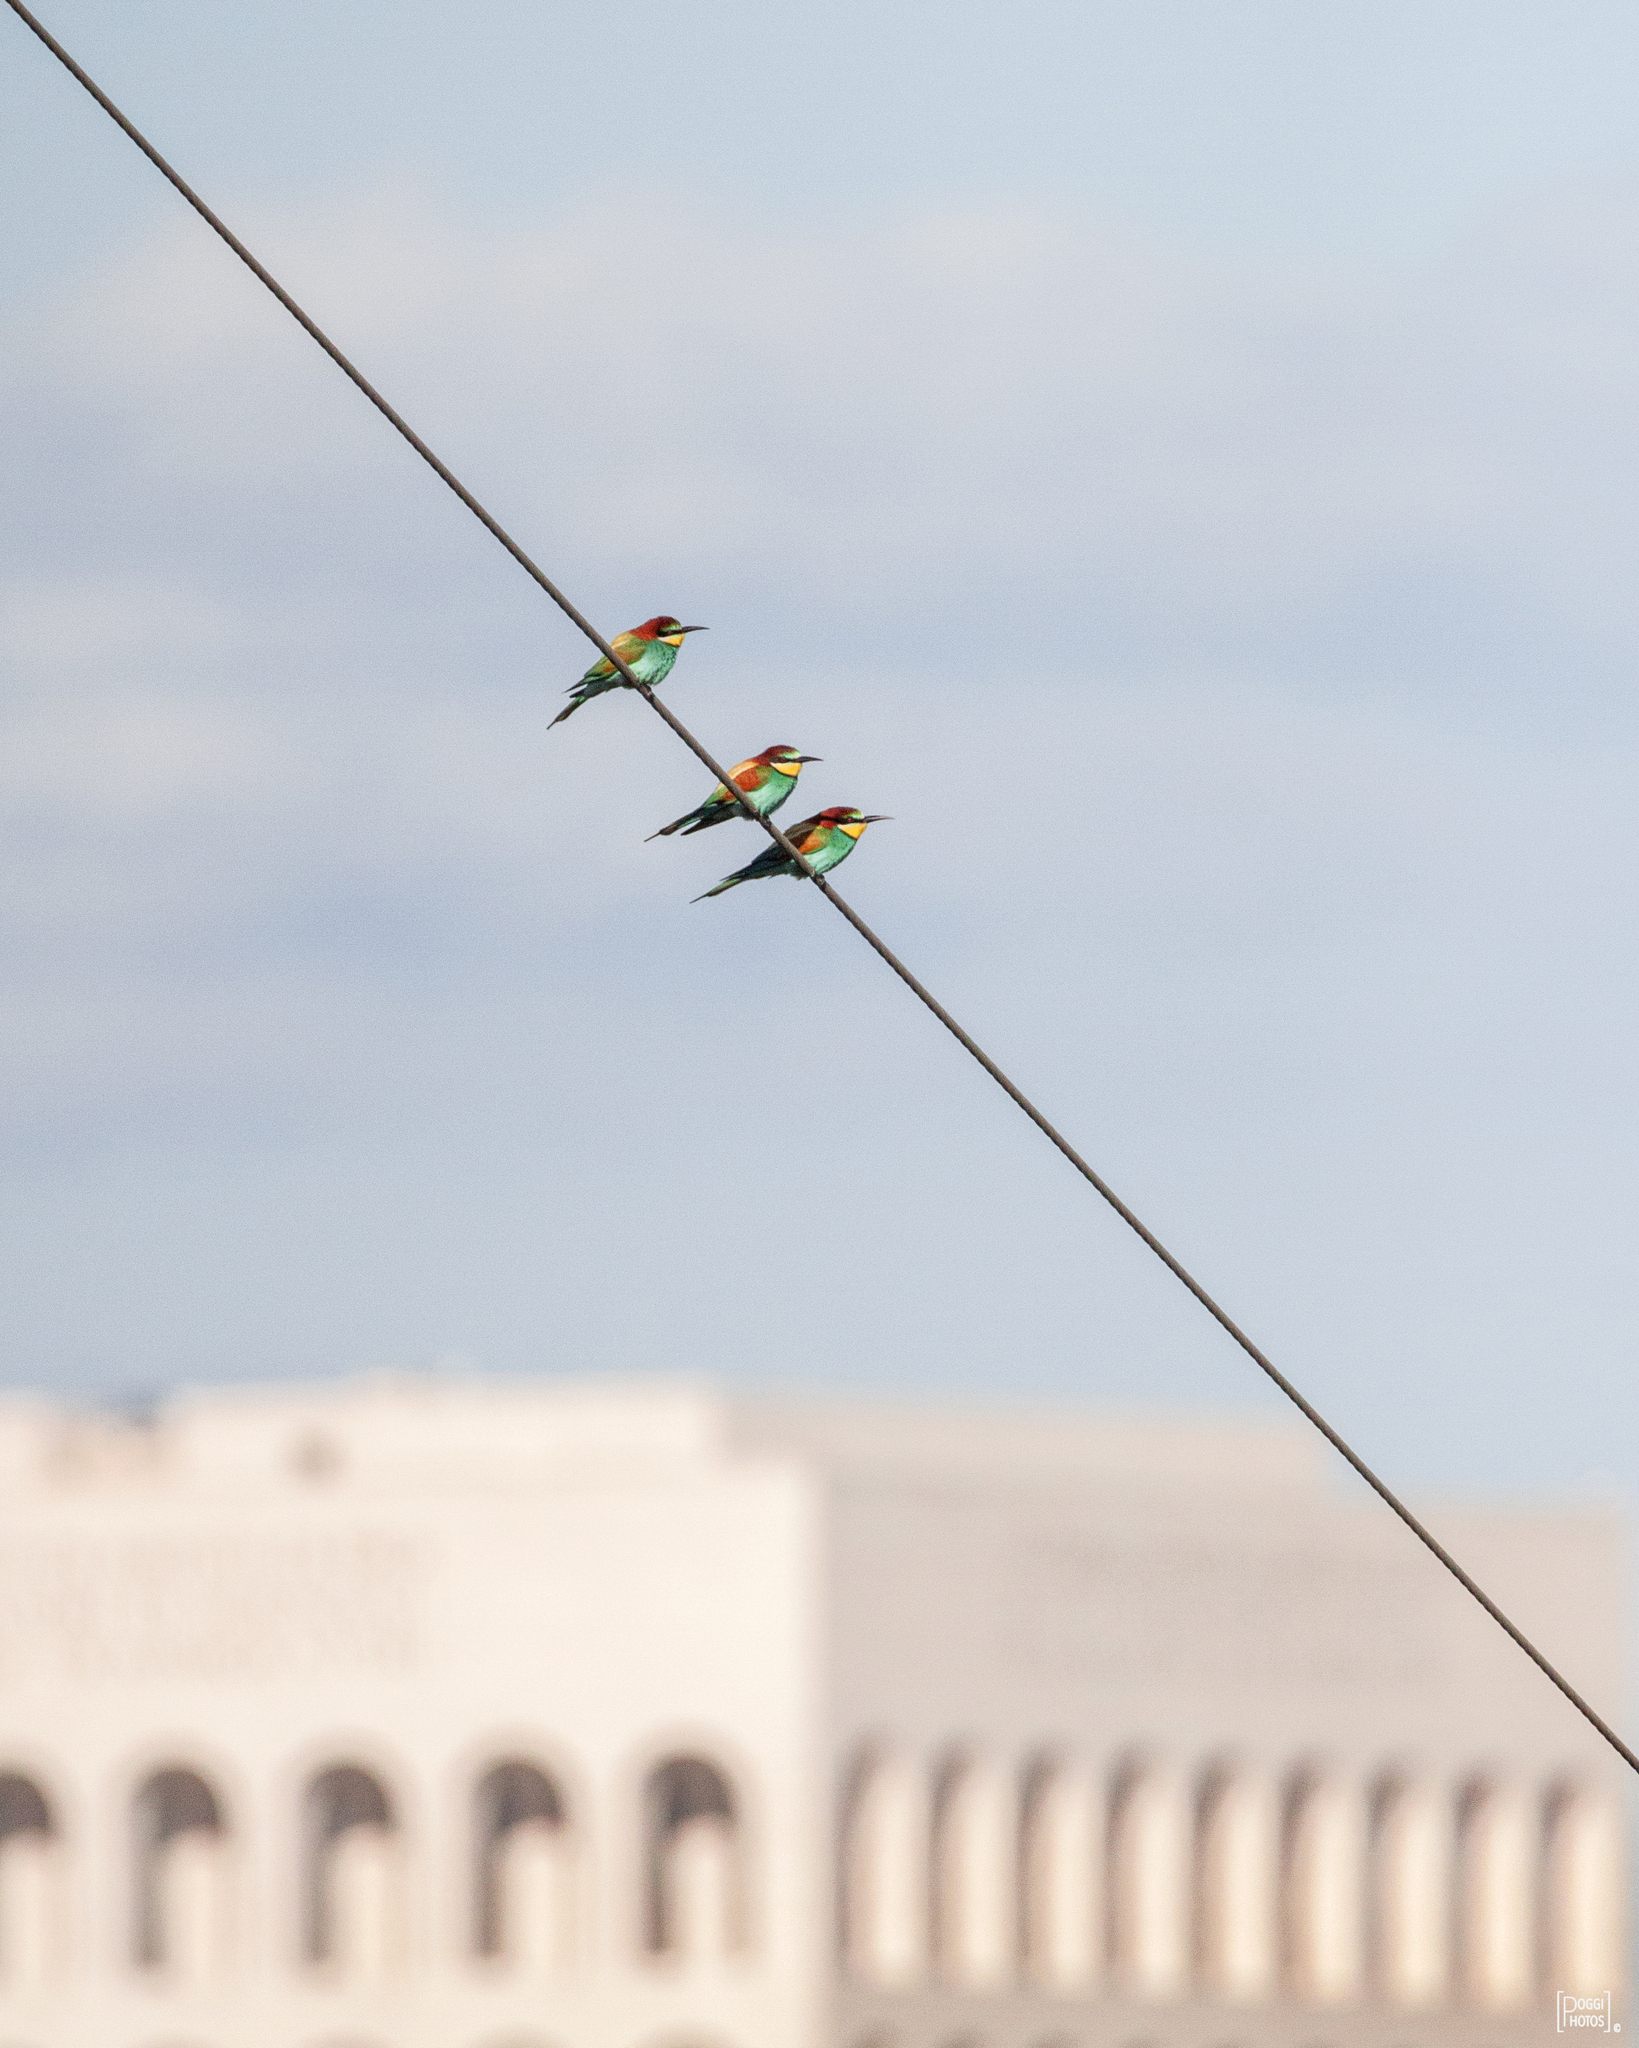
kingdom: Animalia
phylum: Chordata
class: Aves
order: Coraciiformes
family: Meropidae
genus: Merops
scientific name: Merops apiaster
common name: European bee-eater
